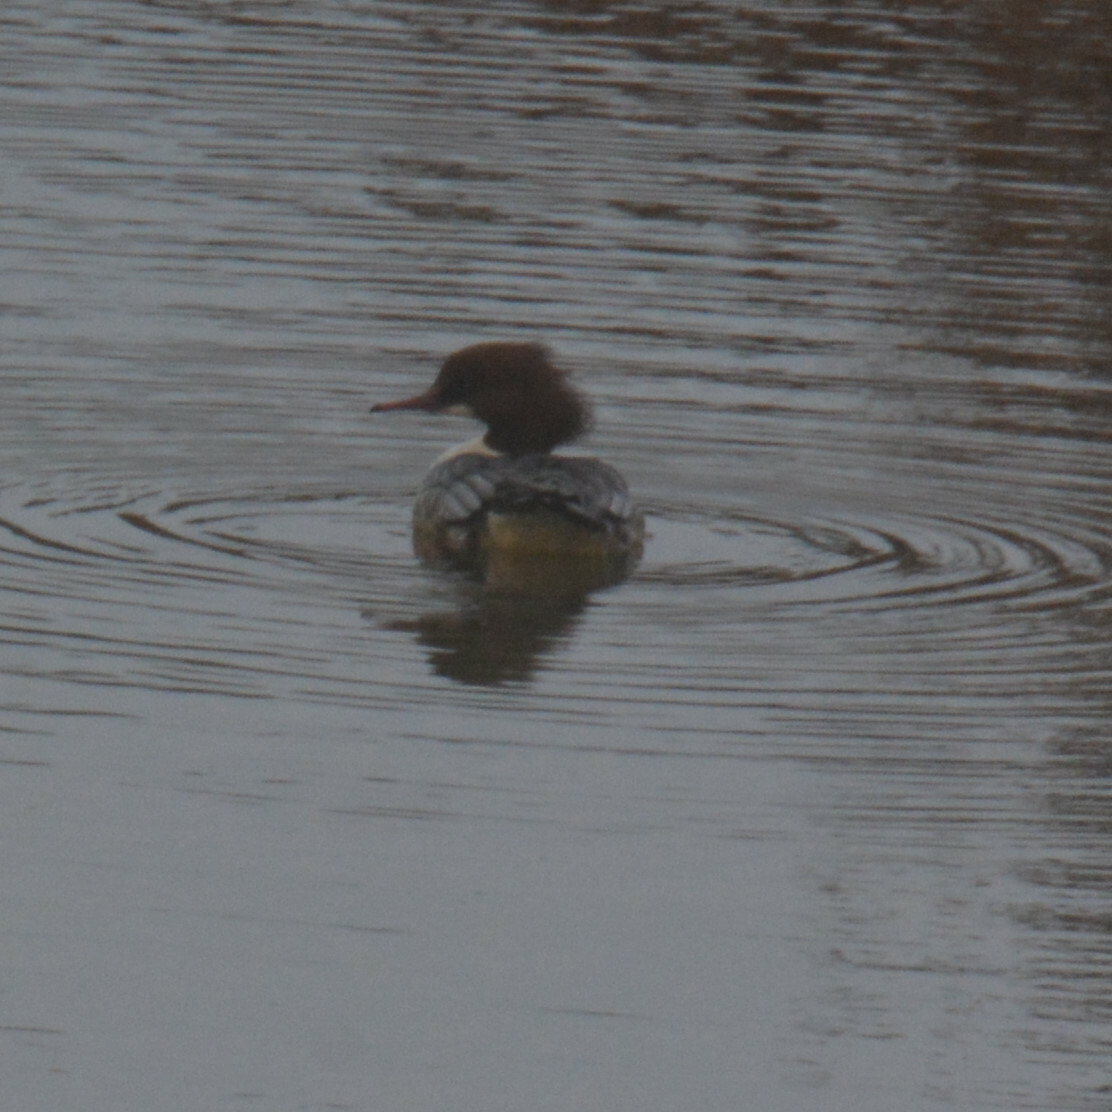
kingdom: Animalia
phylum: Chordata
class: Aves
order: Anseriformes
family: Anatidae
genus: Mergus
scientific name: Mergus merganser
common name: Common merganser
